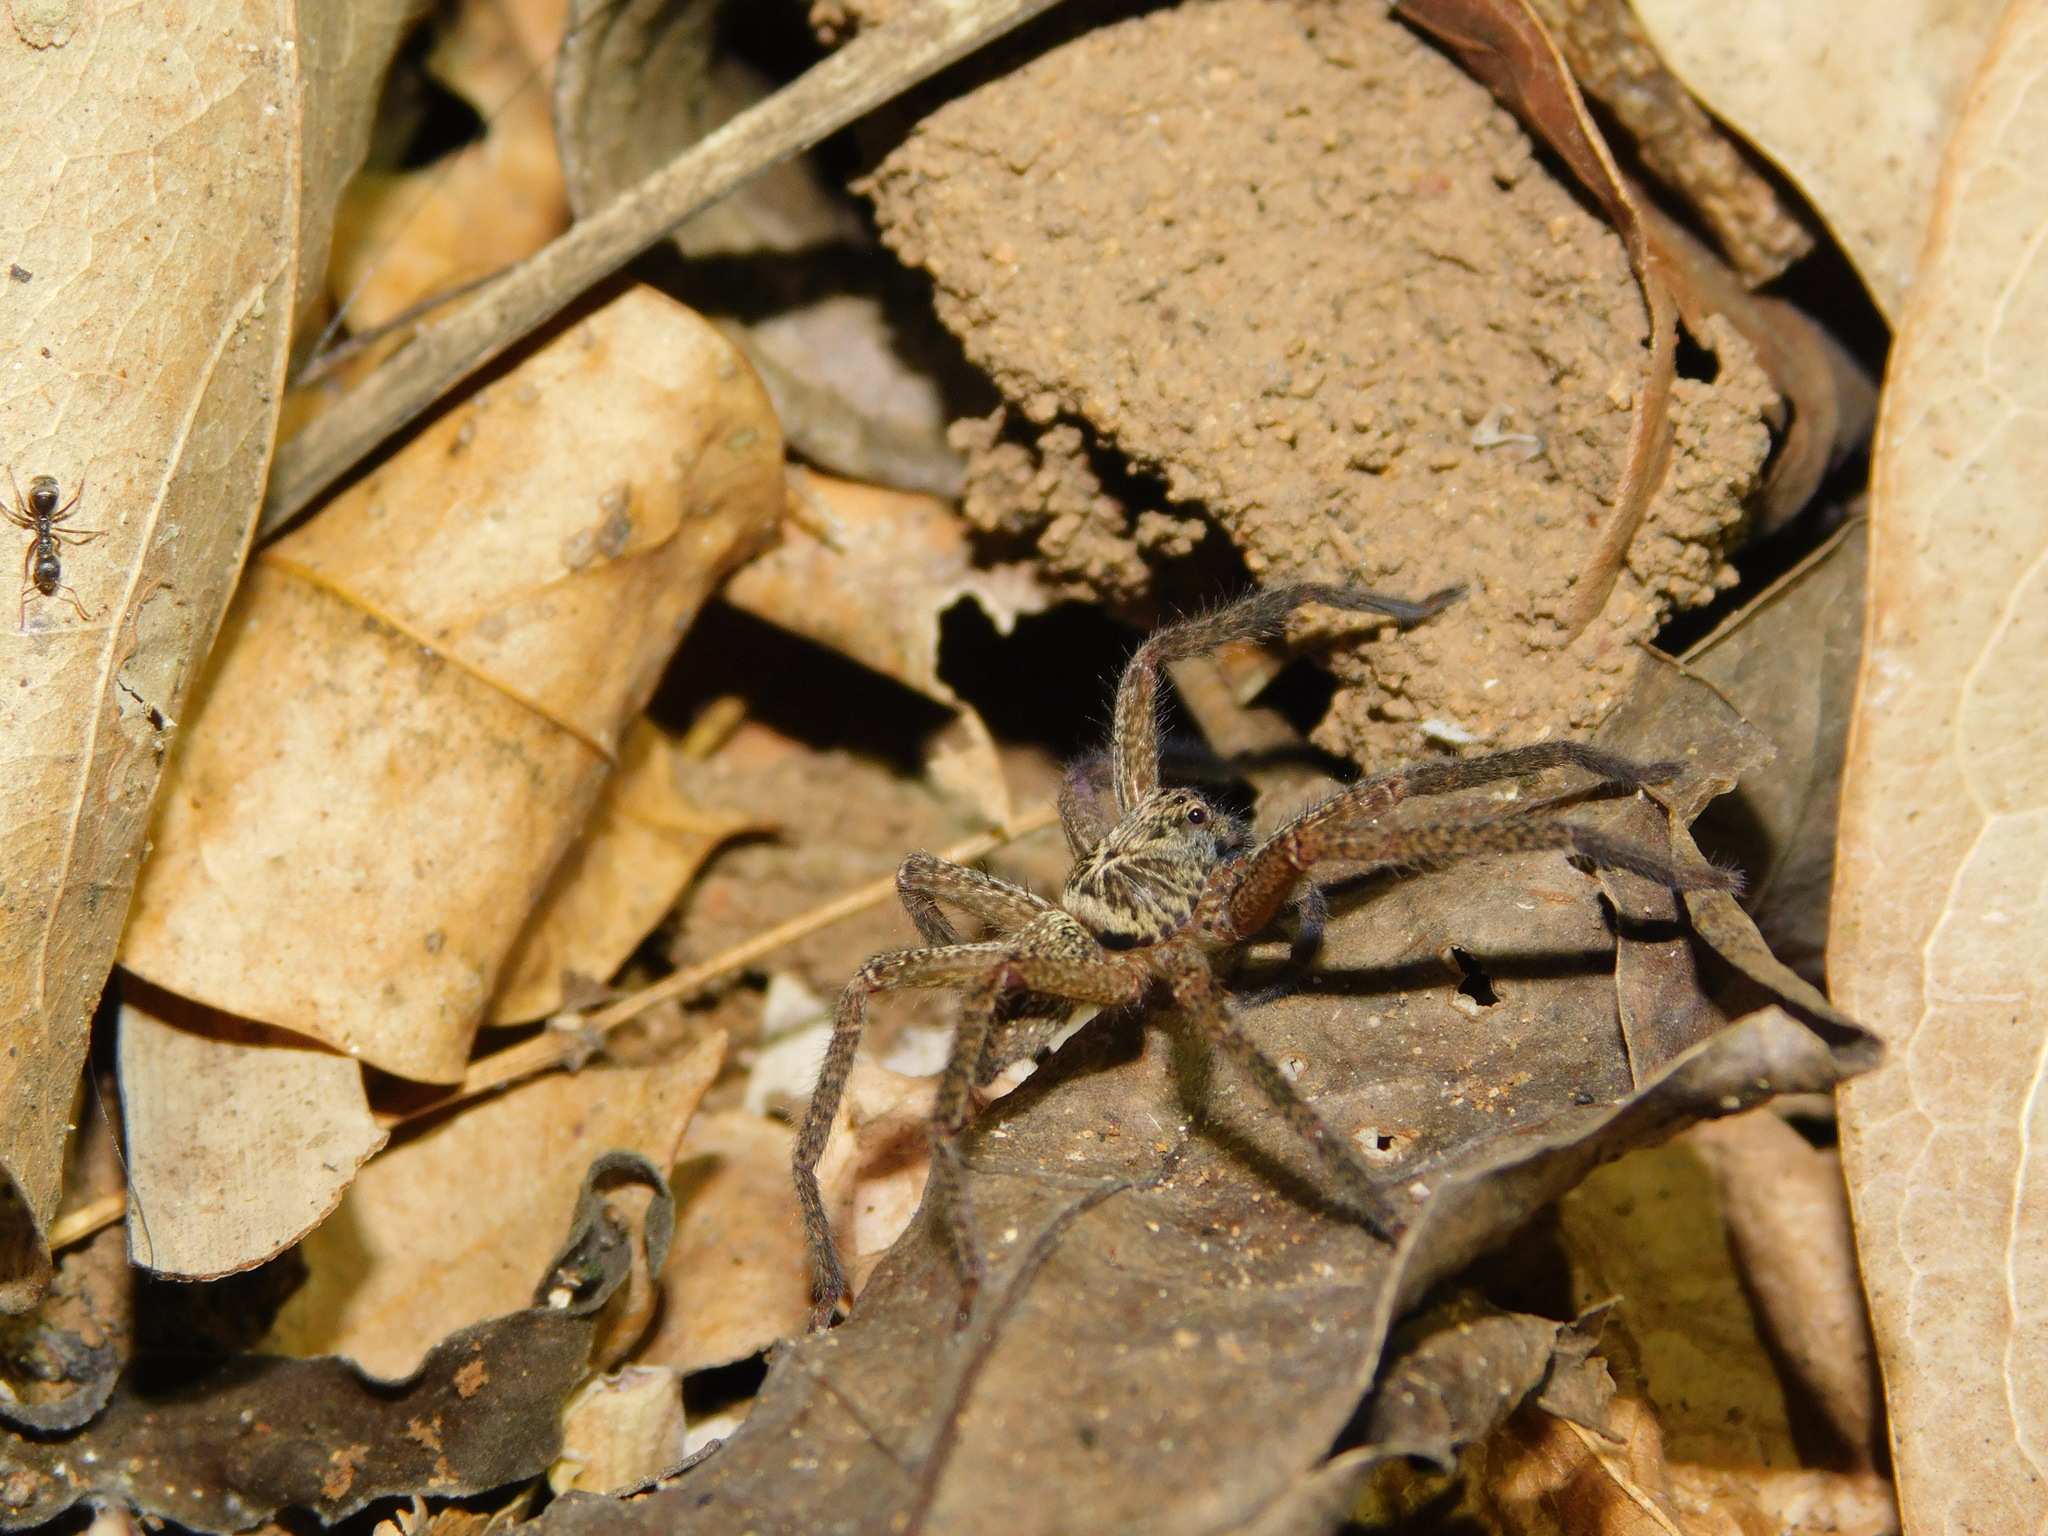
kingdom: Animalia
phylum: Arthropoda
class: Arachnida
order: Araneae
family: Sparassidae
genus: Heteropoda
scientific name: Heteropoda martinae
